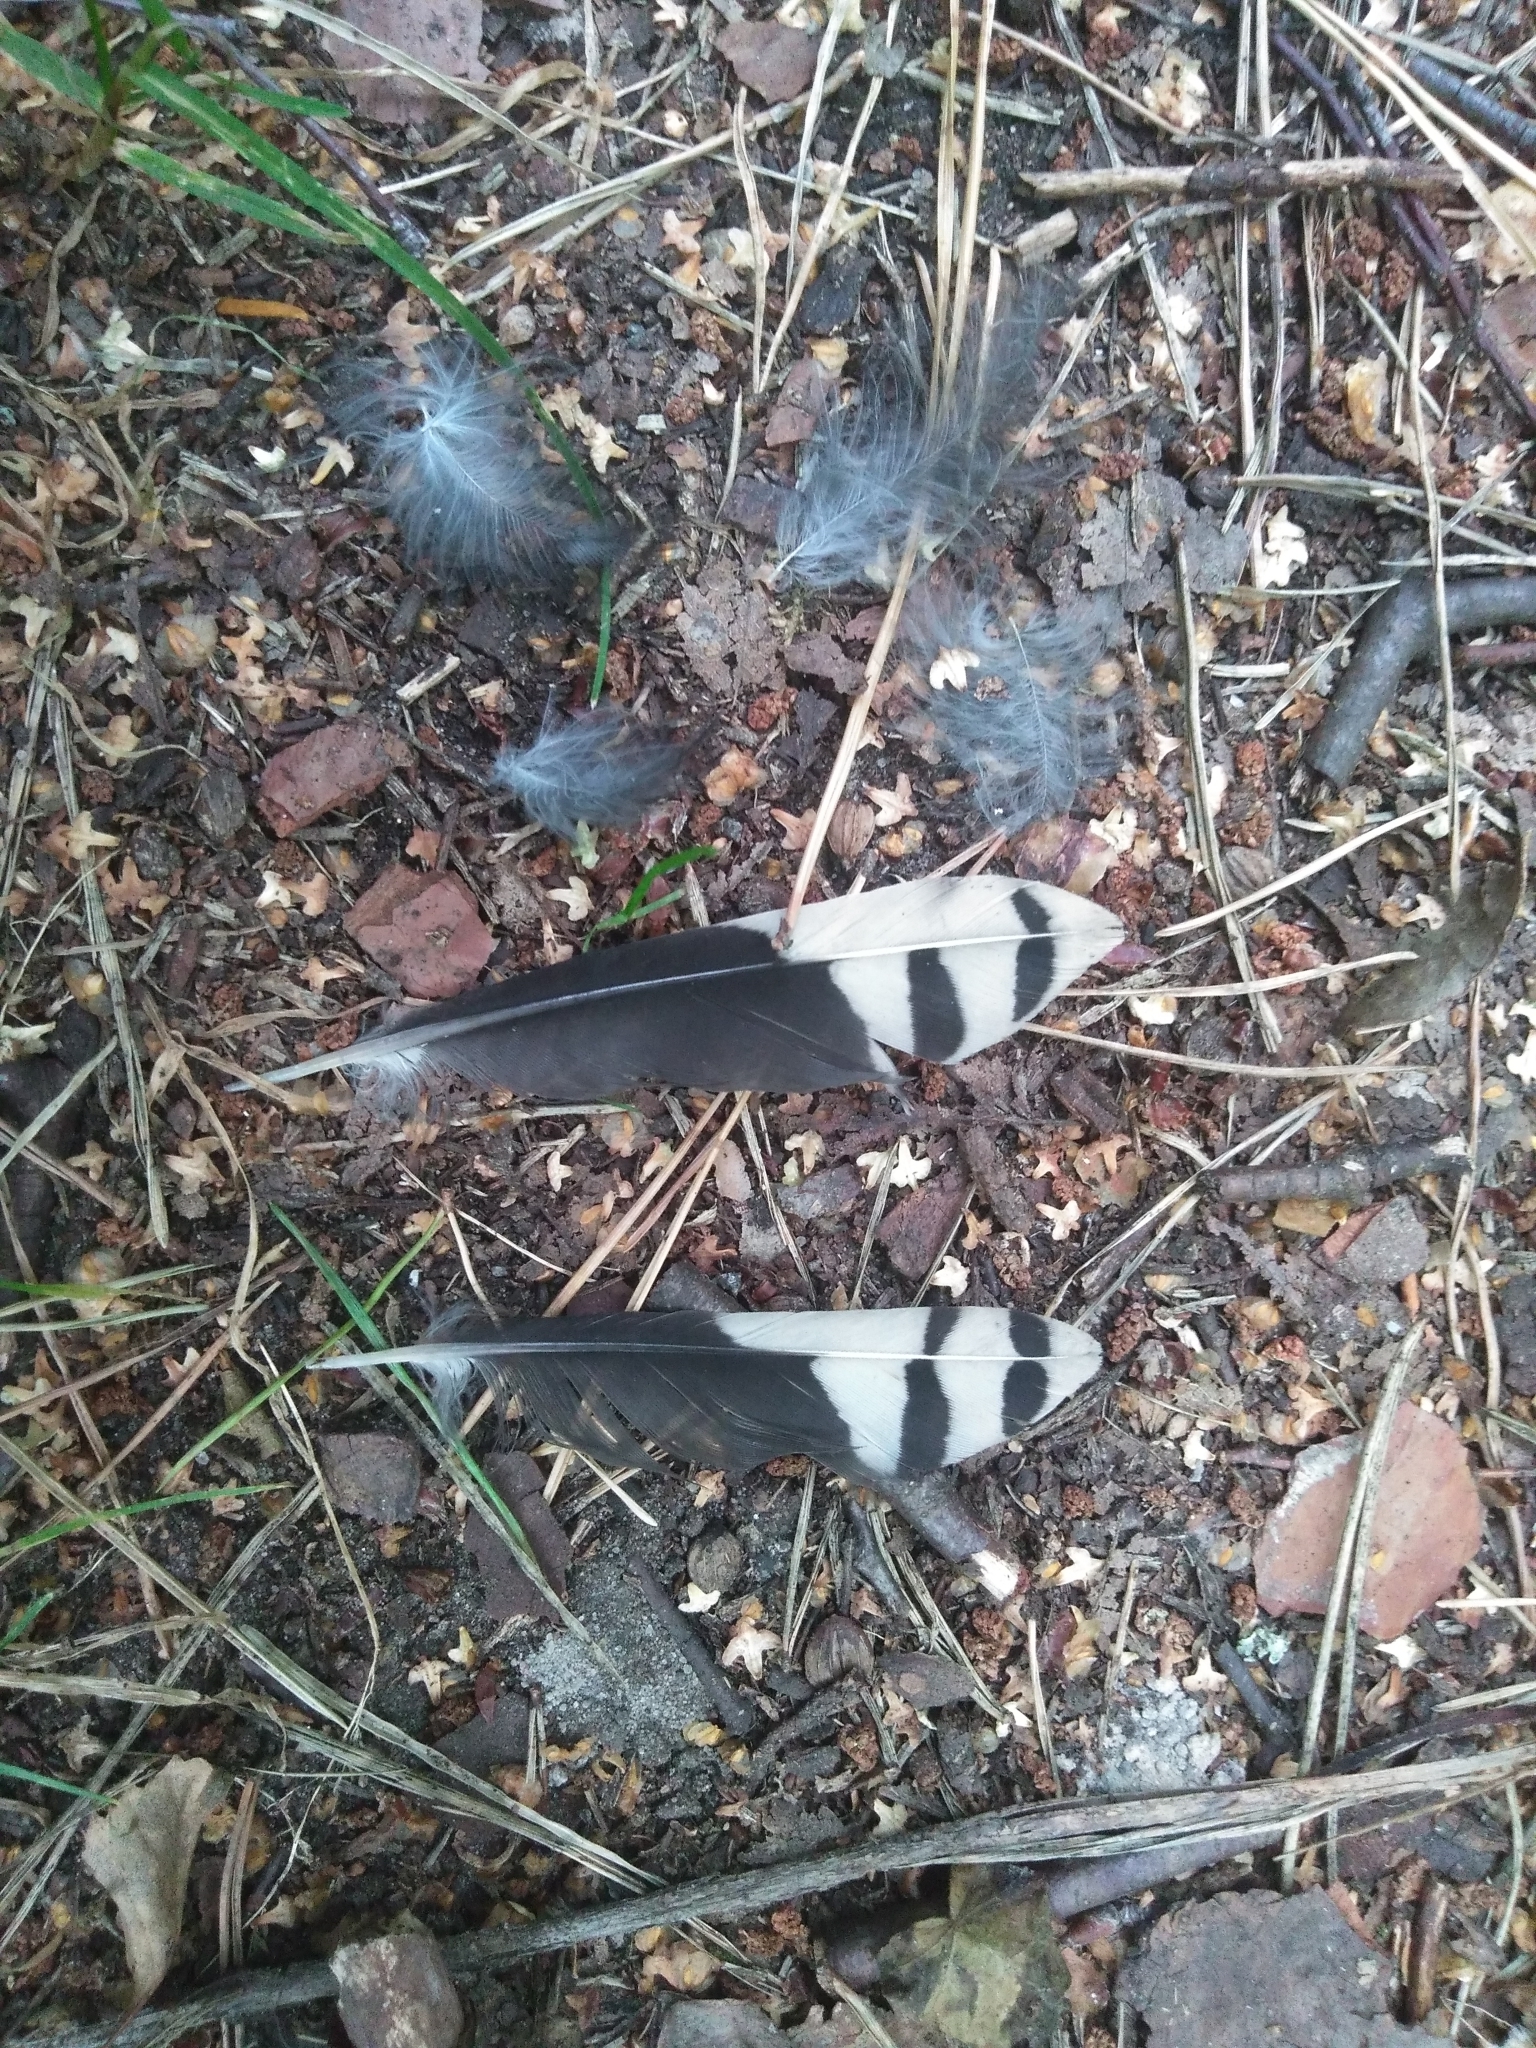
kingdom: Animalia
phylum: Chordata
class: Aves
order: Piciformes
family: Picidae
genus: Dendrocopos
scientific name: Dendrocopos major
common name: Great spotted woodpecker
